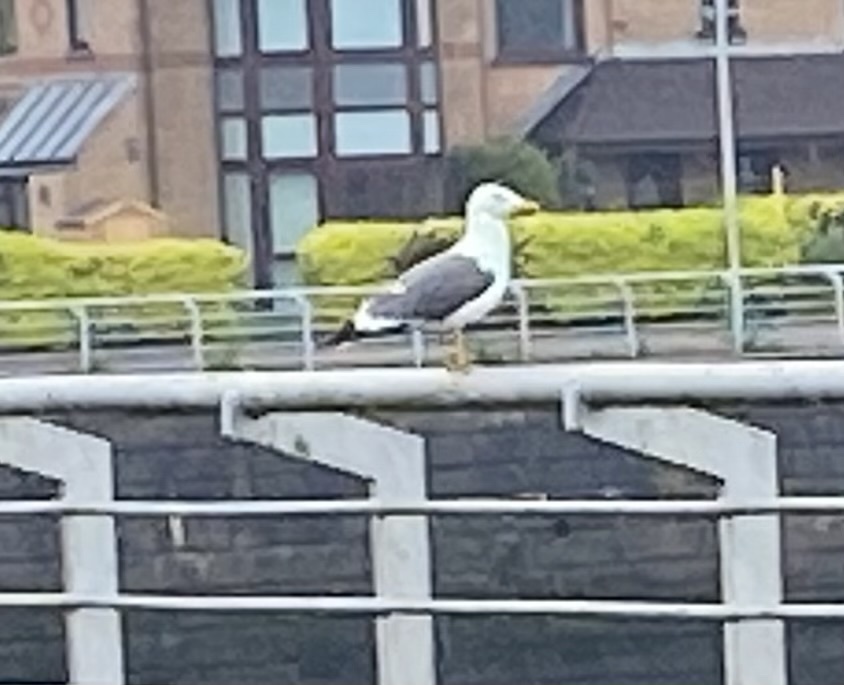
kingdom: Animalia
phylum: Chordata
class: Aves
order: Charadriiformes
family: Laridae
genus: Larus
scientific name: Larus fuscus
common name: Lesser black-backed gull
